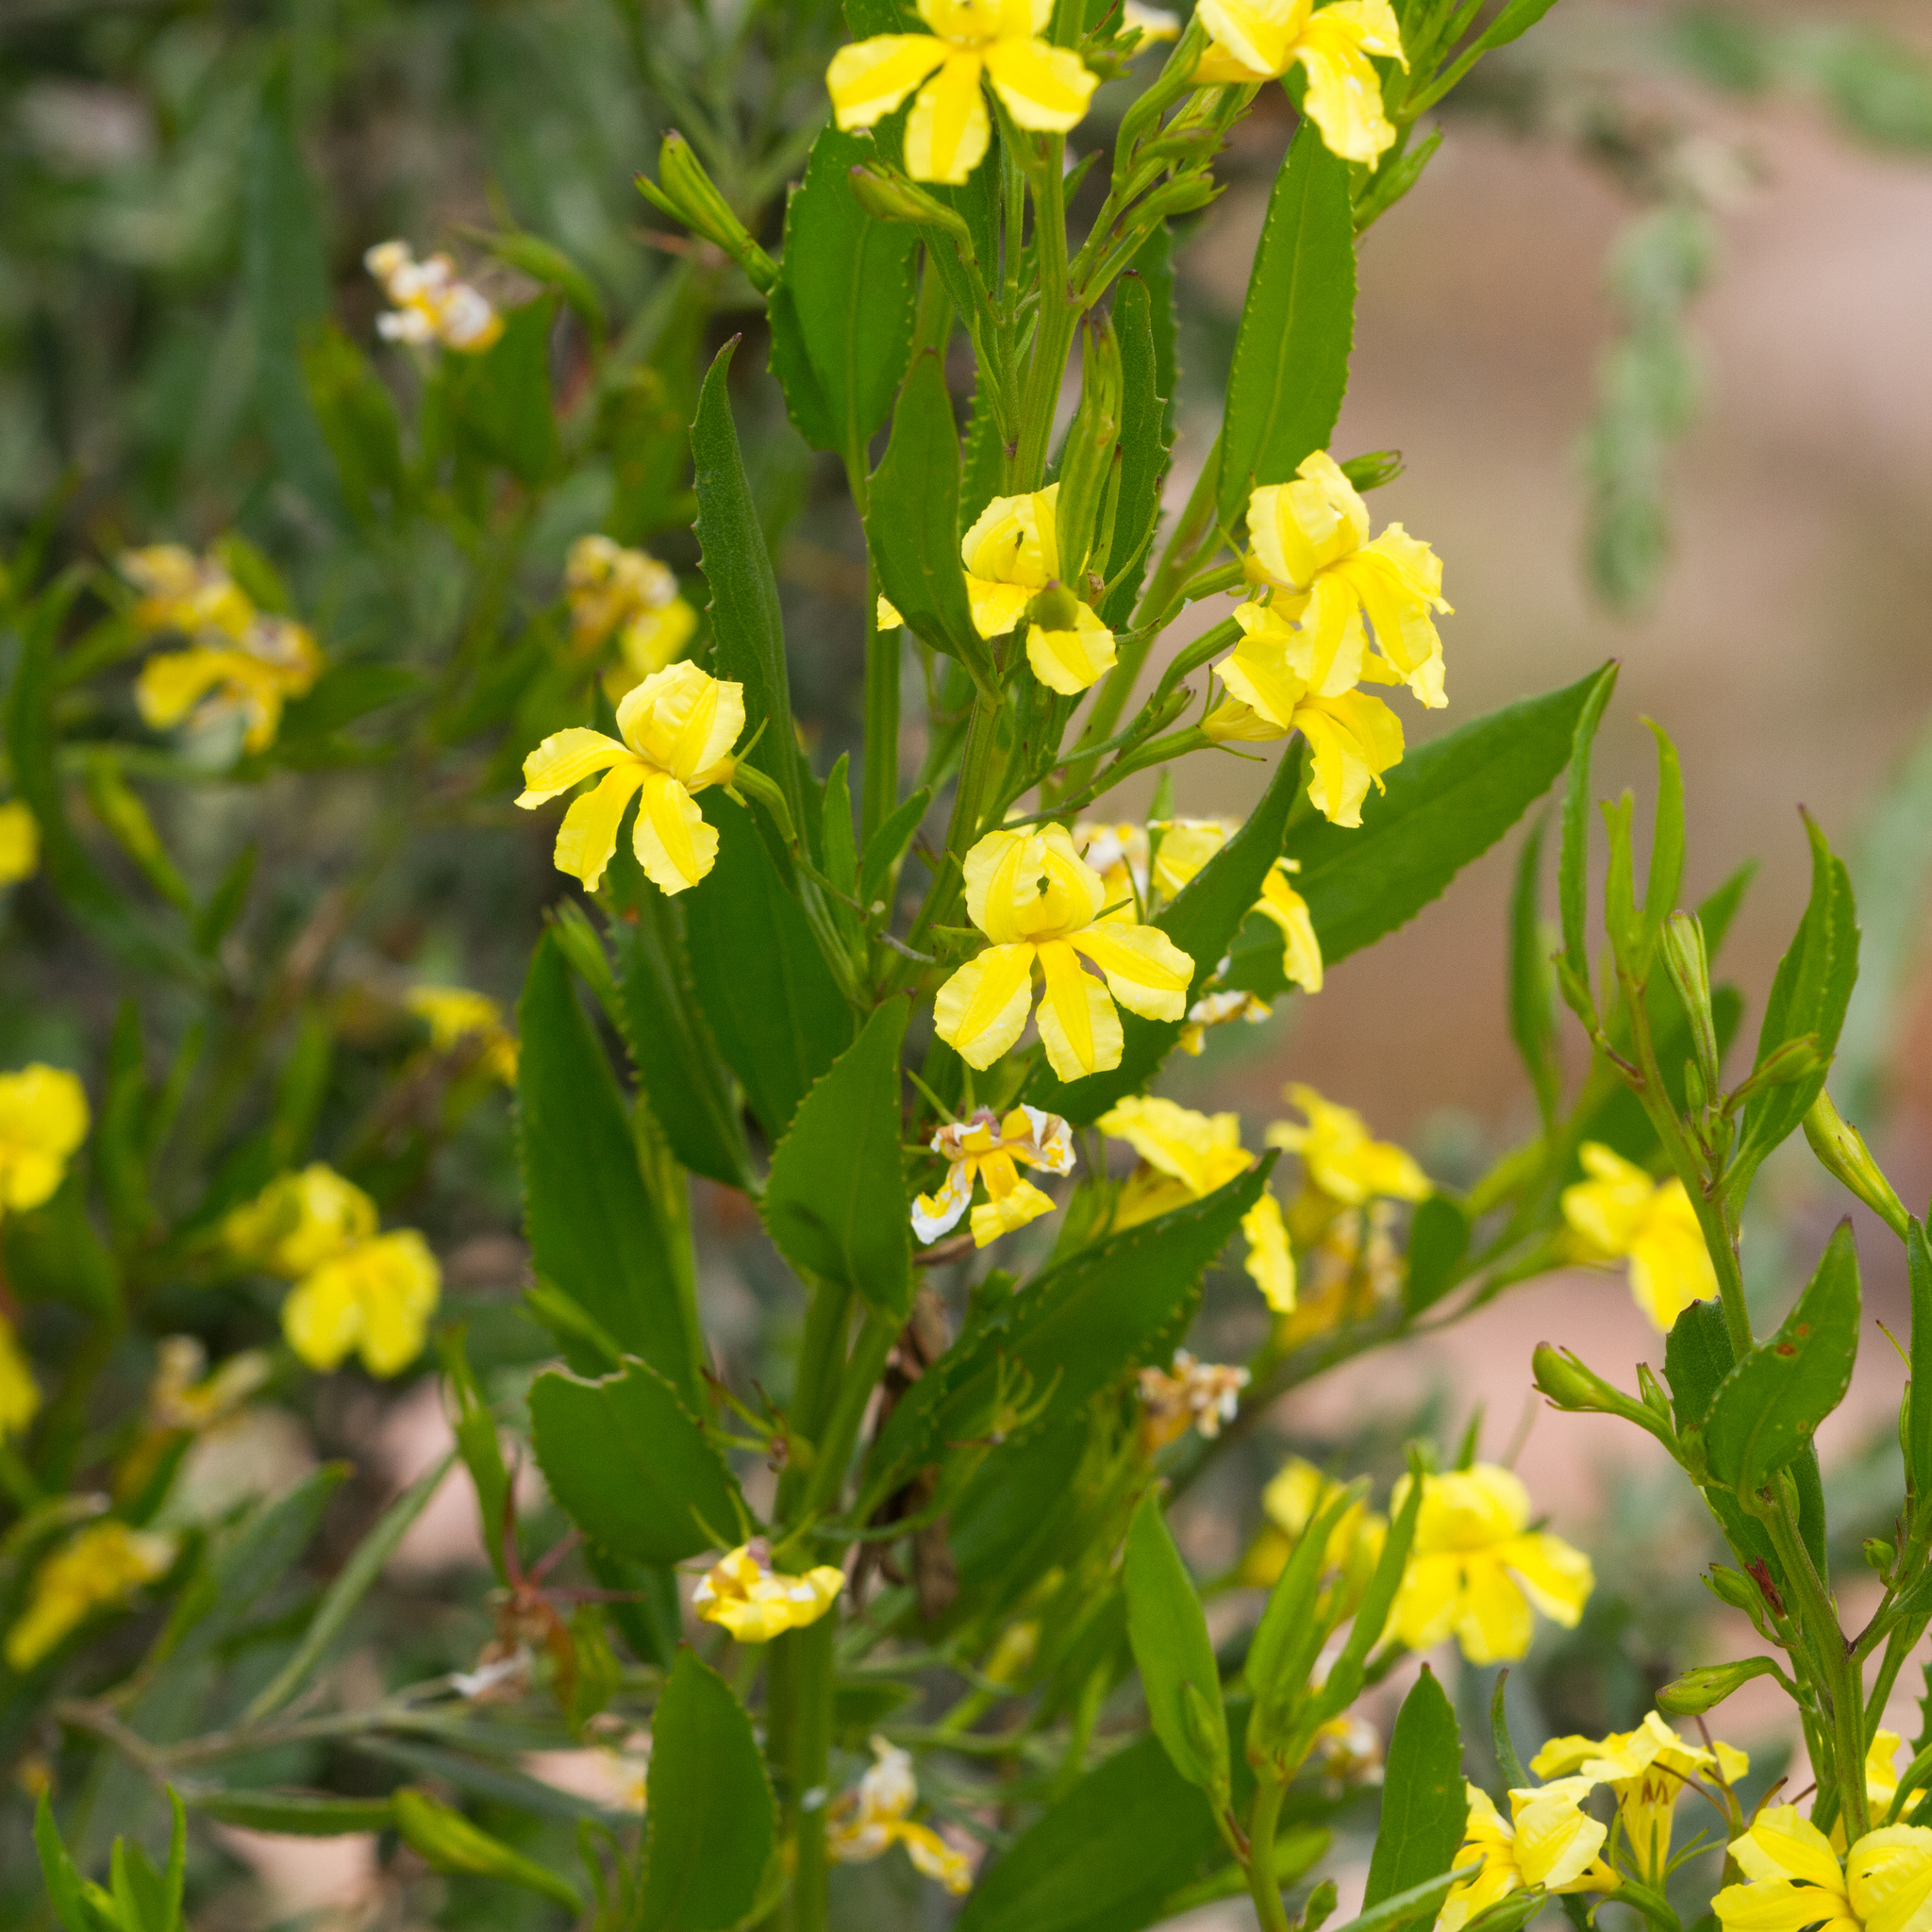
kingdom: Plantae
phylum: Tracheophyta
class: Magnoliopsida
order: Asterales
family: Goodeniaceae
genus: Goodenia
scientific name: Goodenia varia
